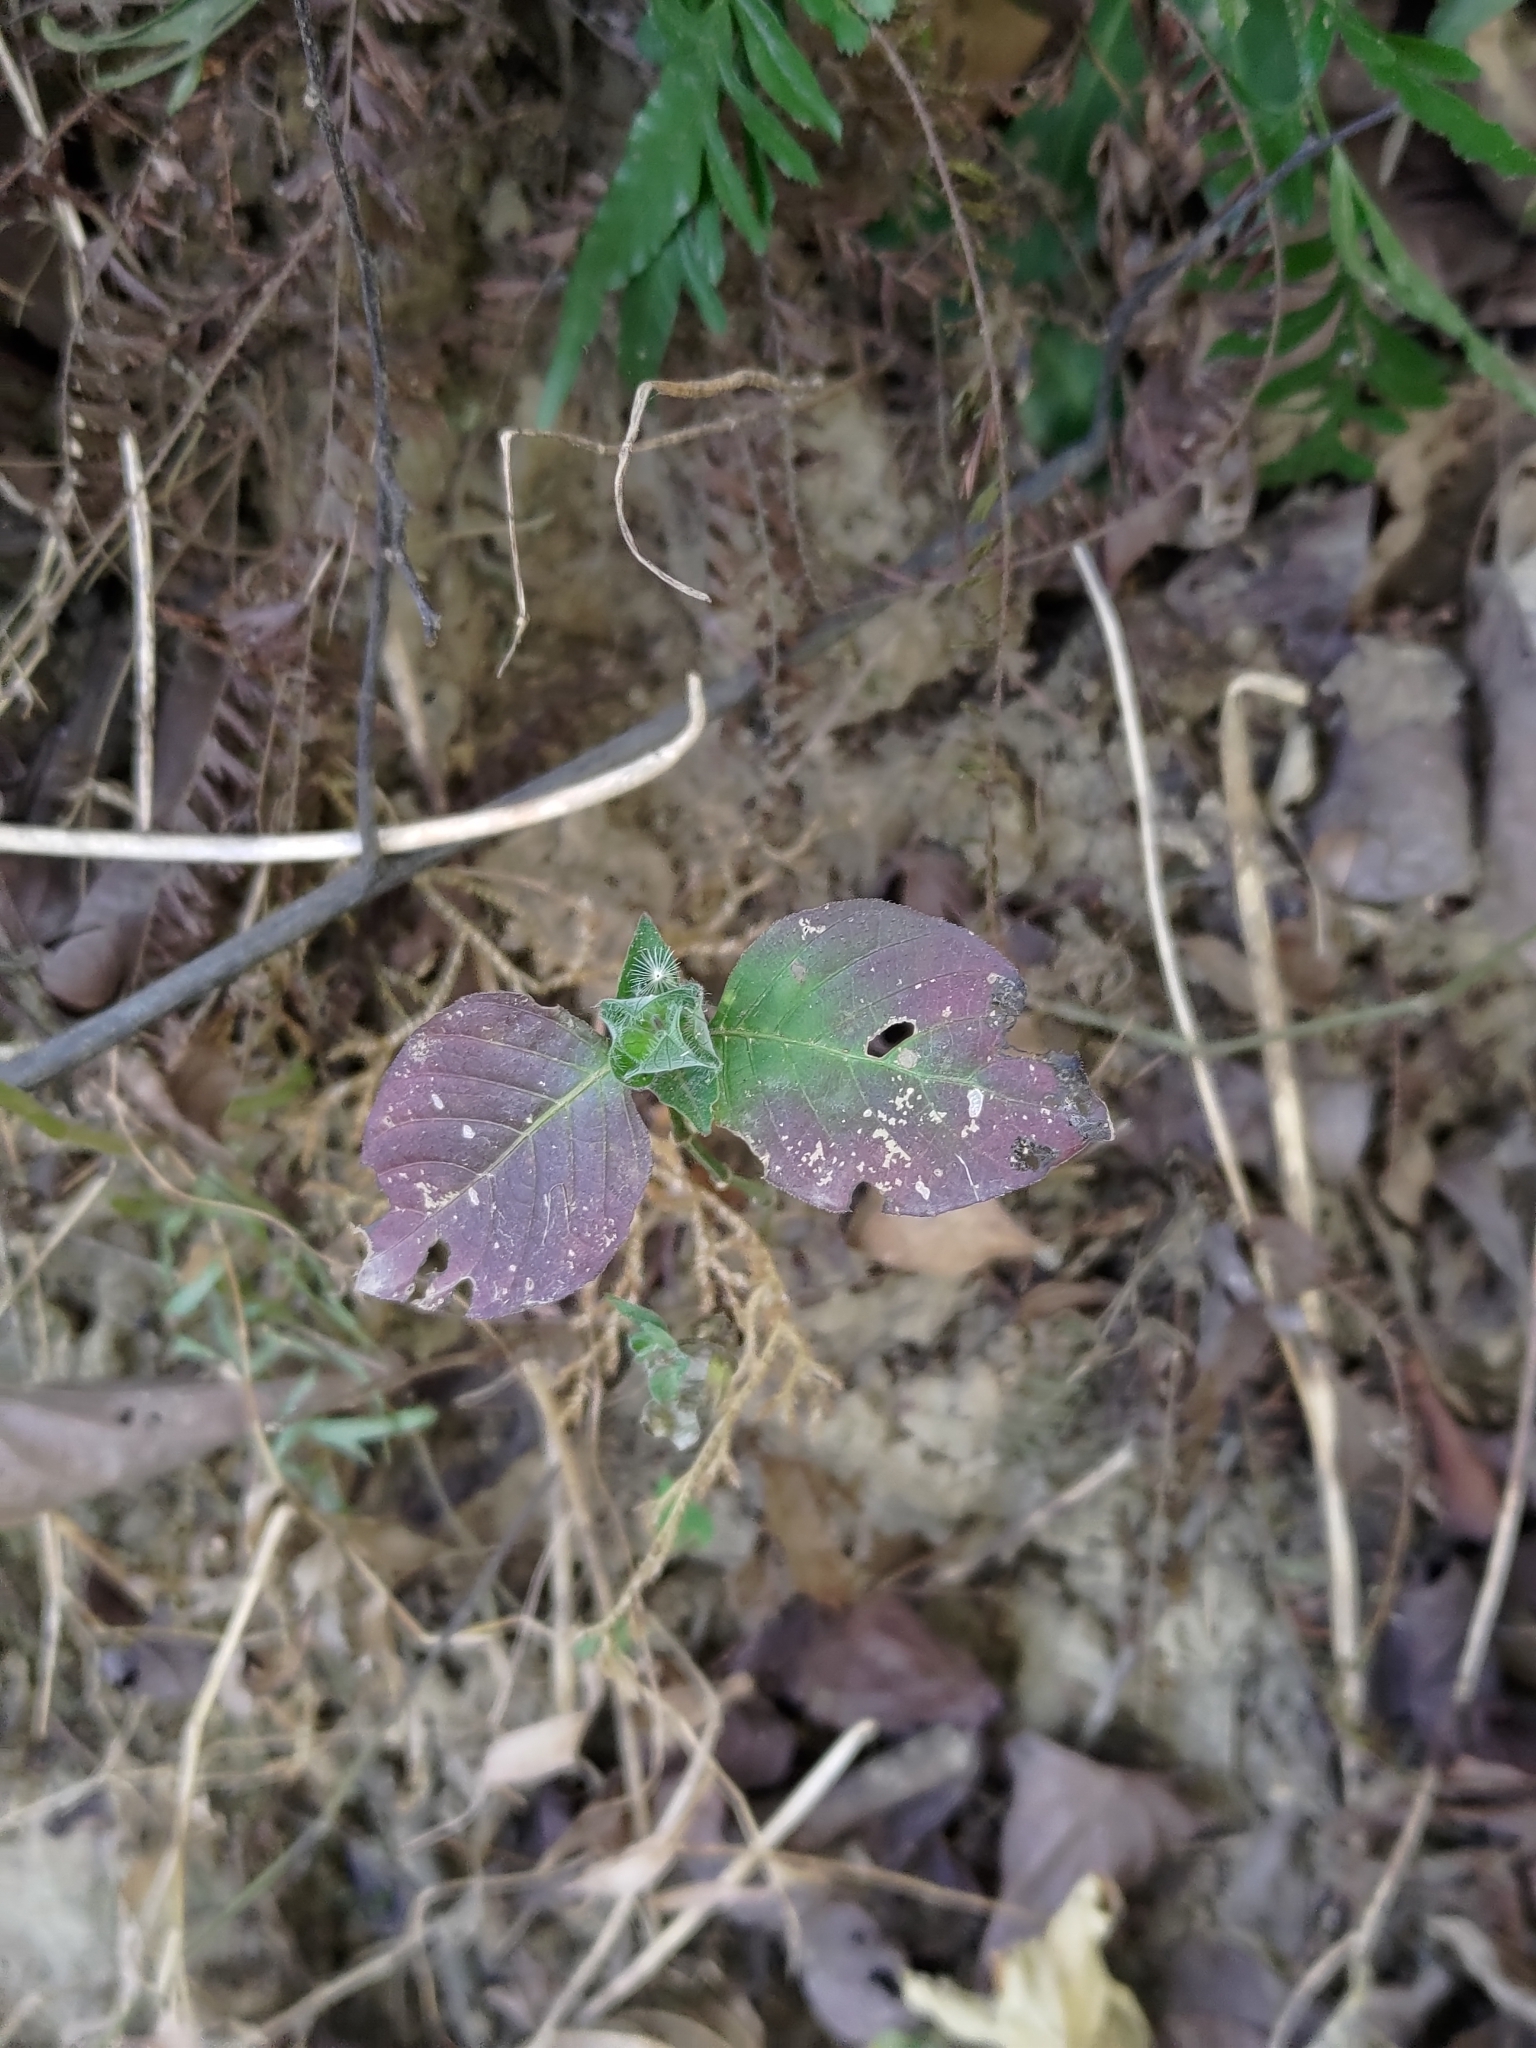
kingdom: Plantae
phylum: Tracheophyta
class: Magnoliopsida
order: Lamiales
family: Acanthaceae
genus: Ruellia
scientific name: Ruellia blechum
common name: Browne's blechum
